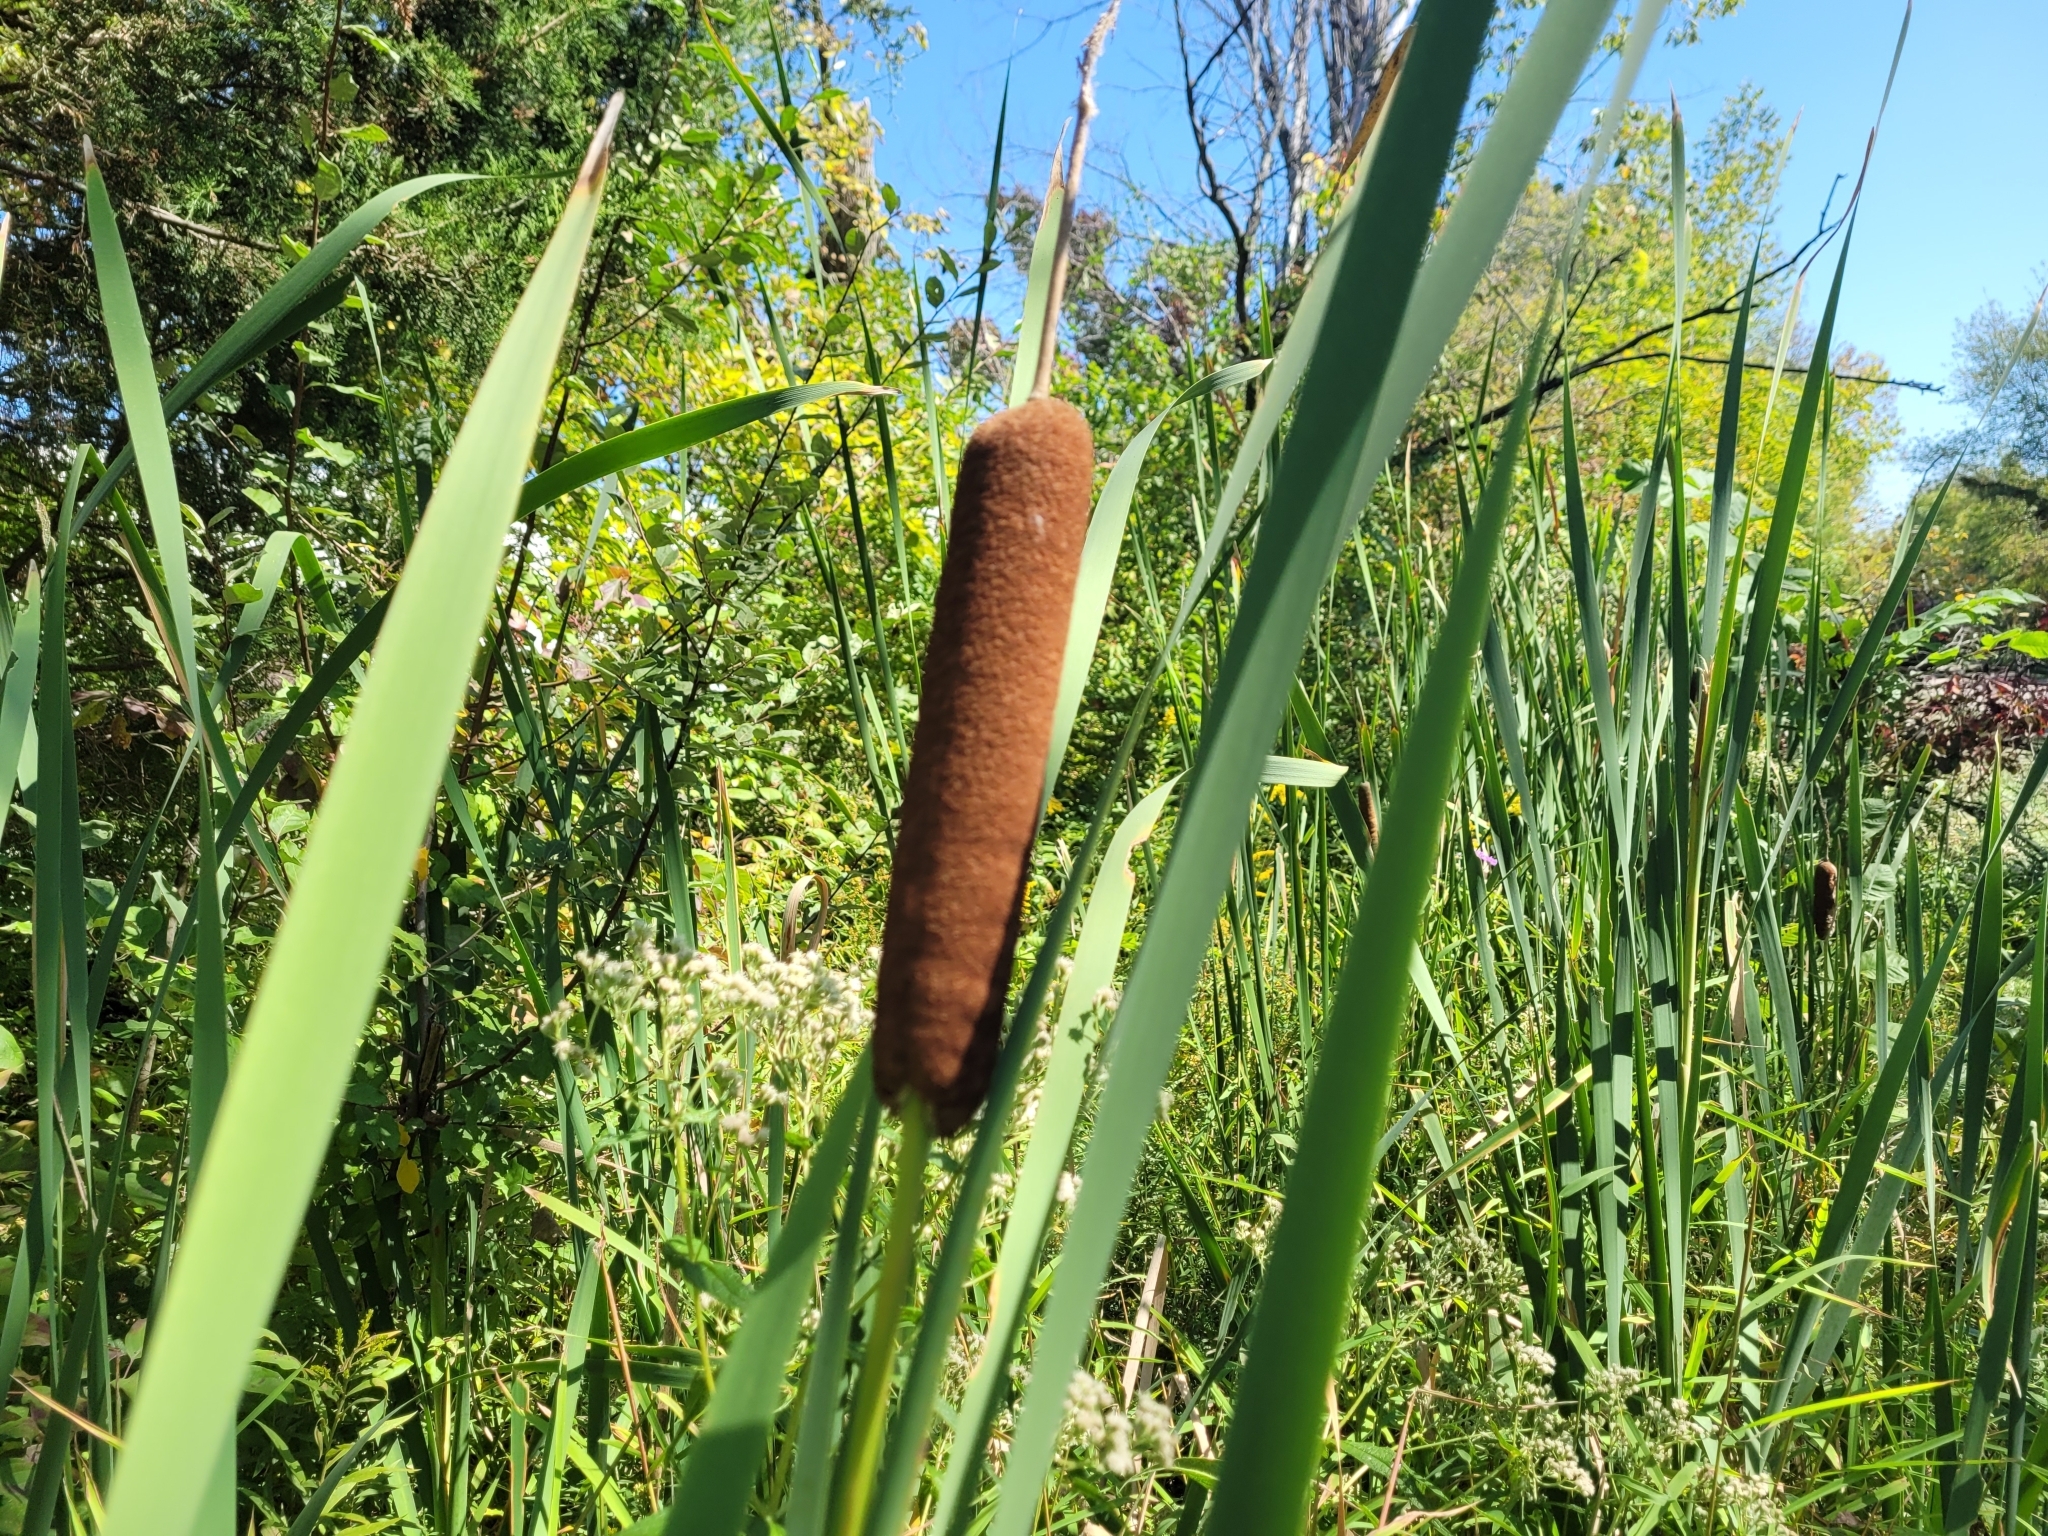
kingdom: Plantae
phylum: Tracheophyta
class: Liliopsida
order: Poales
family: Typhaceae
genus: Typha
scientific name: Typha latifolia
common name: Broadleaf cattail
